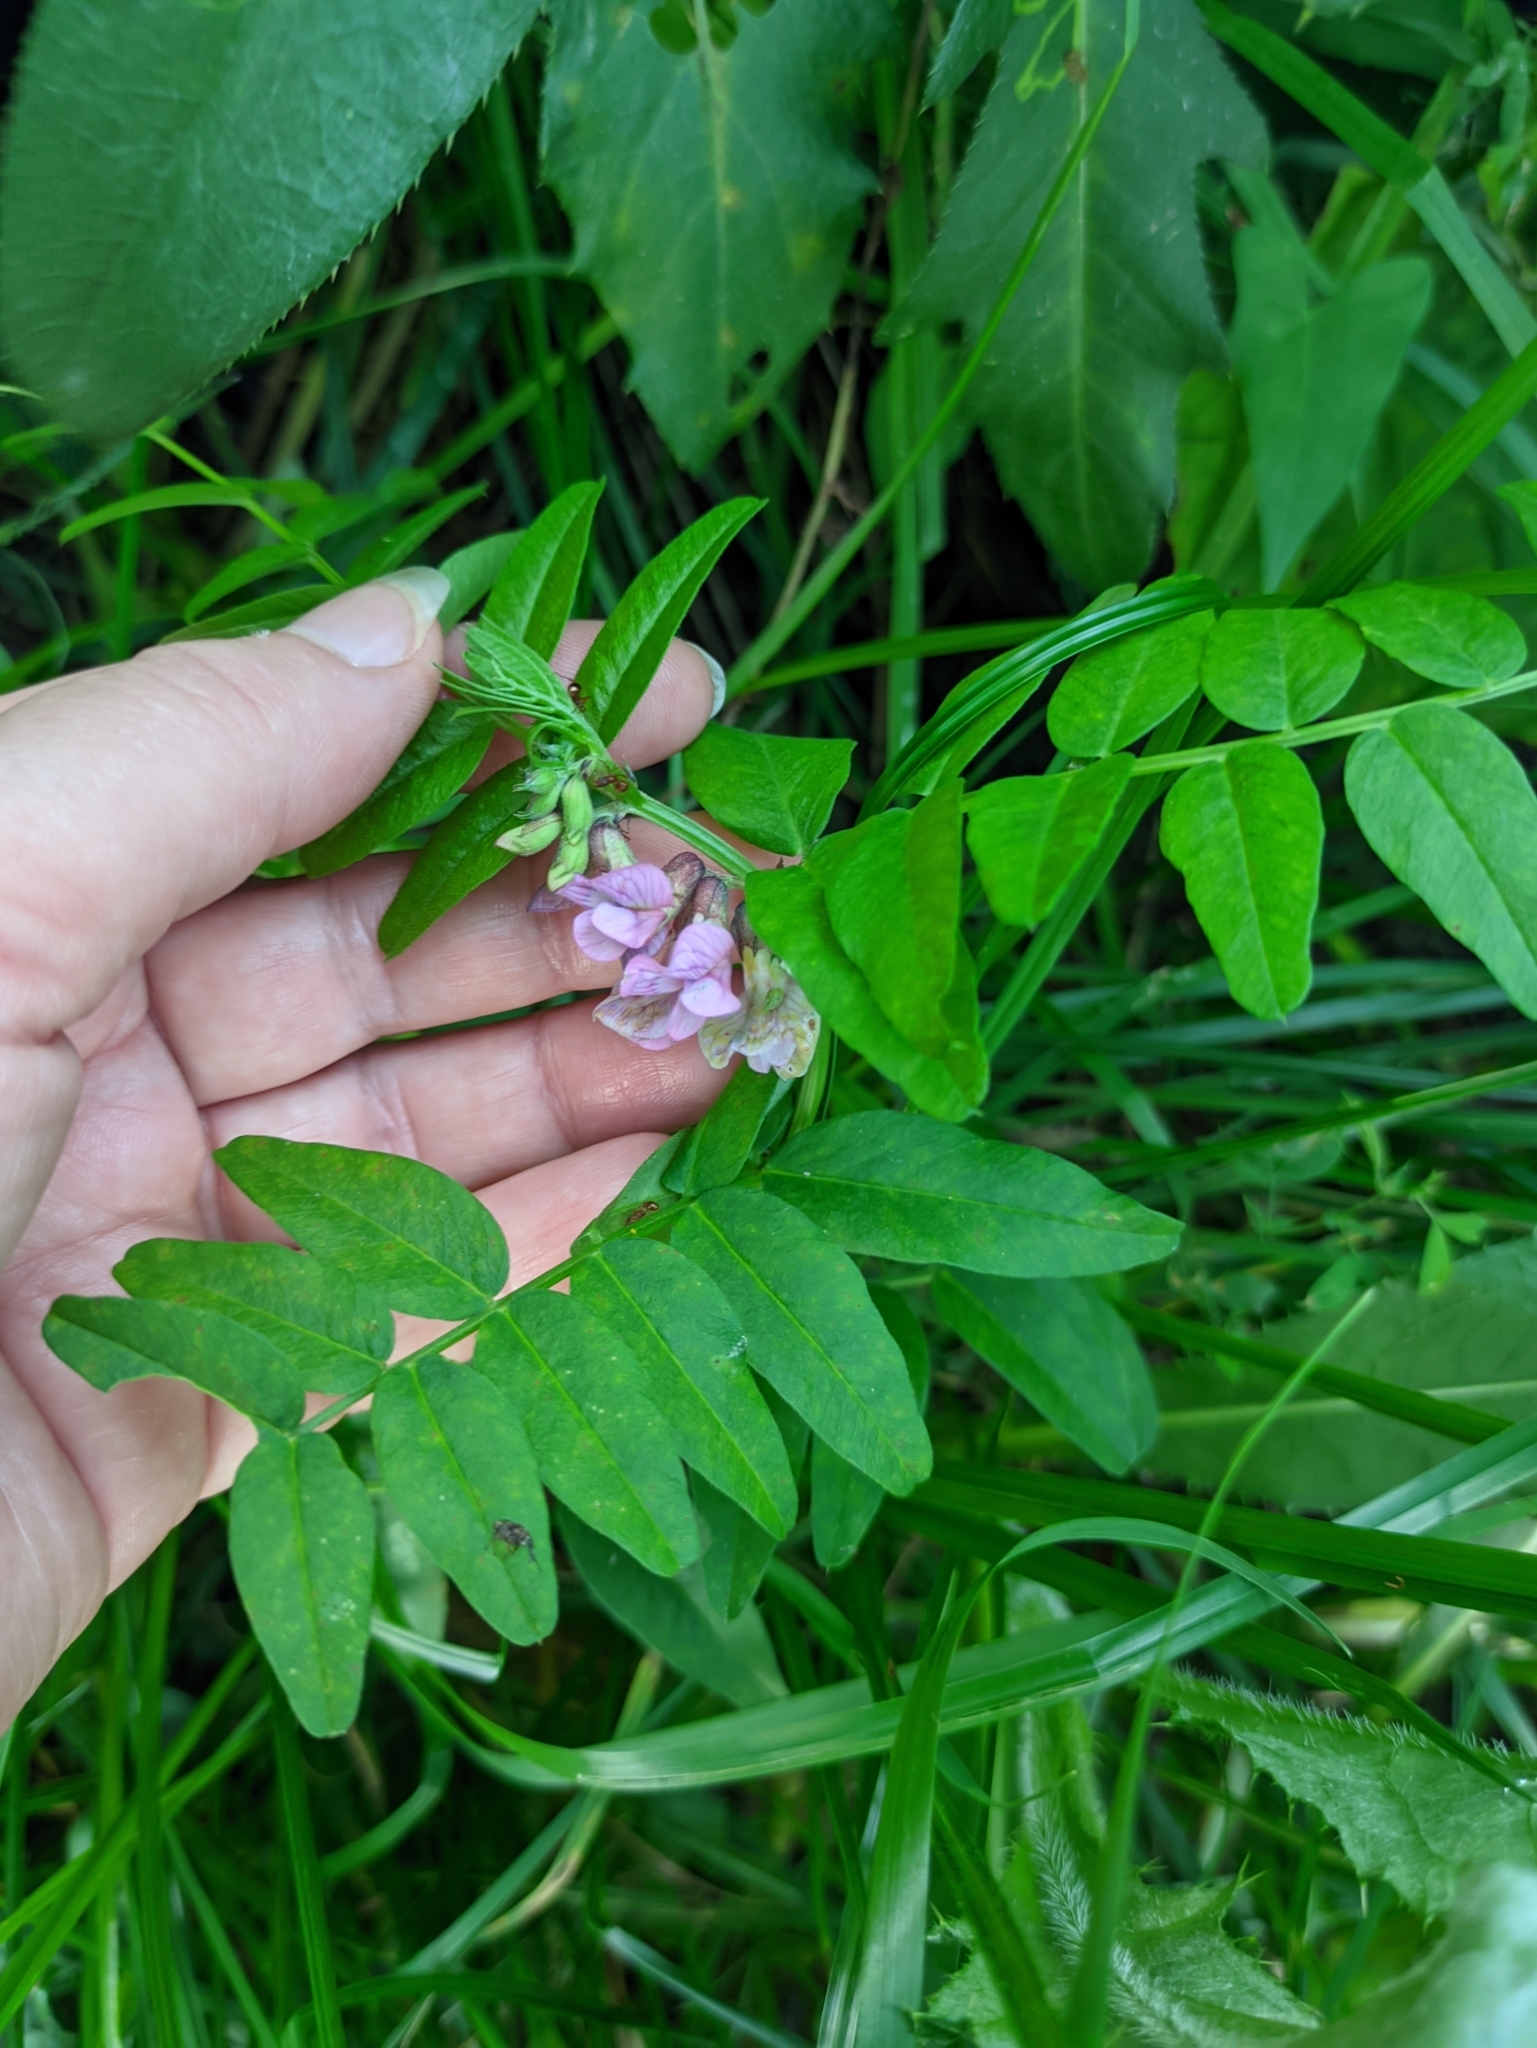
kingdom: Plantae
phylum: Tracheophyta
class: Magnoliopsida
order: Fabales
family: Fabaceae
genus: Vicia
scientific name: Vicia sepium
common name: Bush vetch
